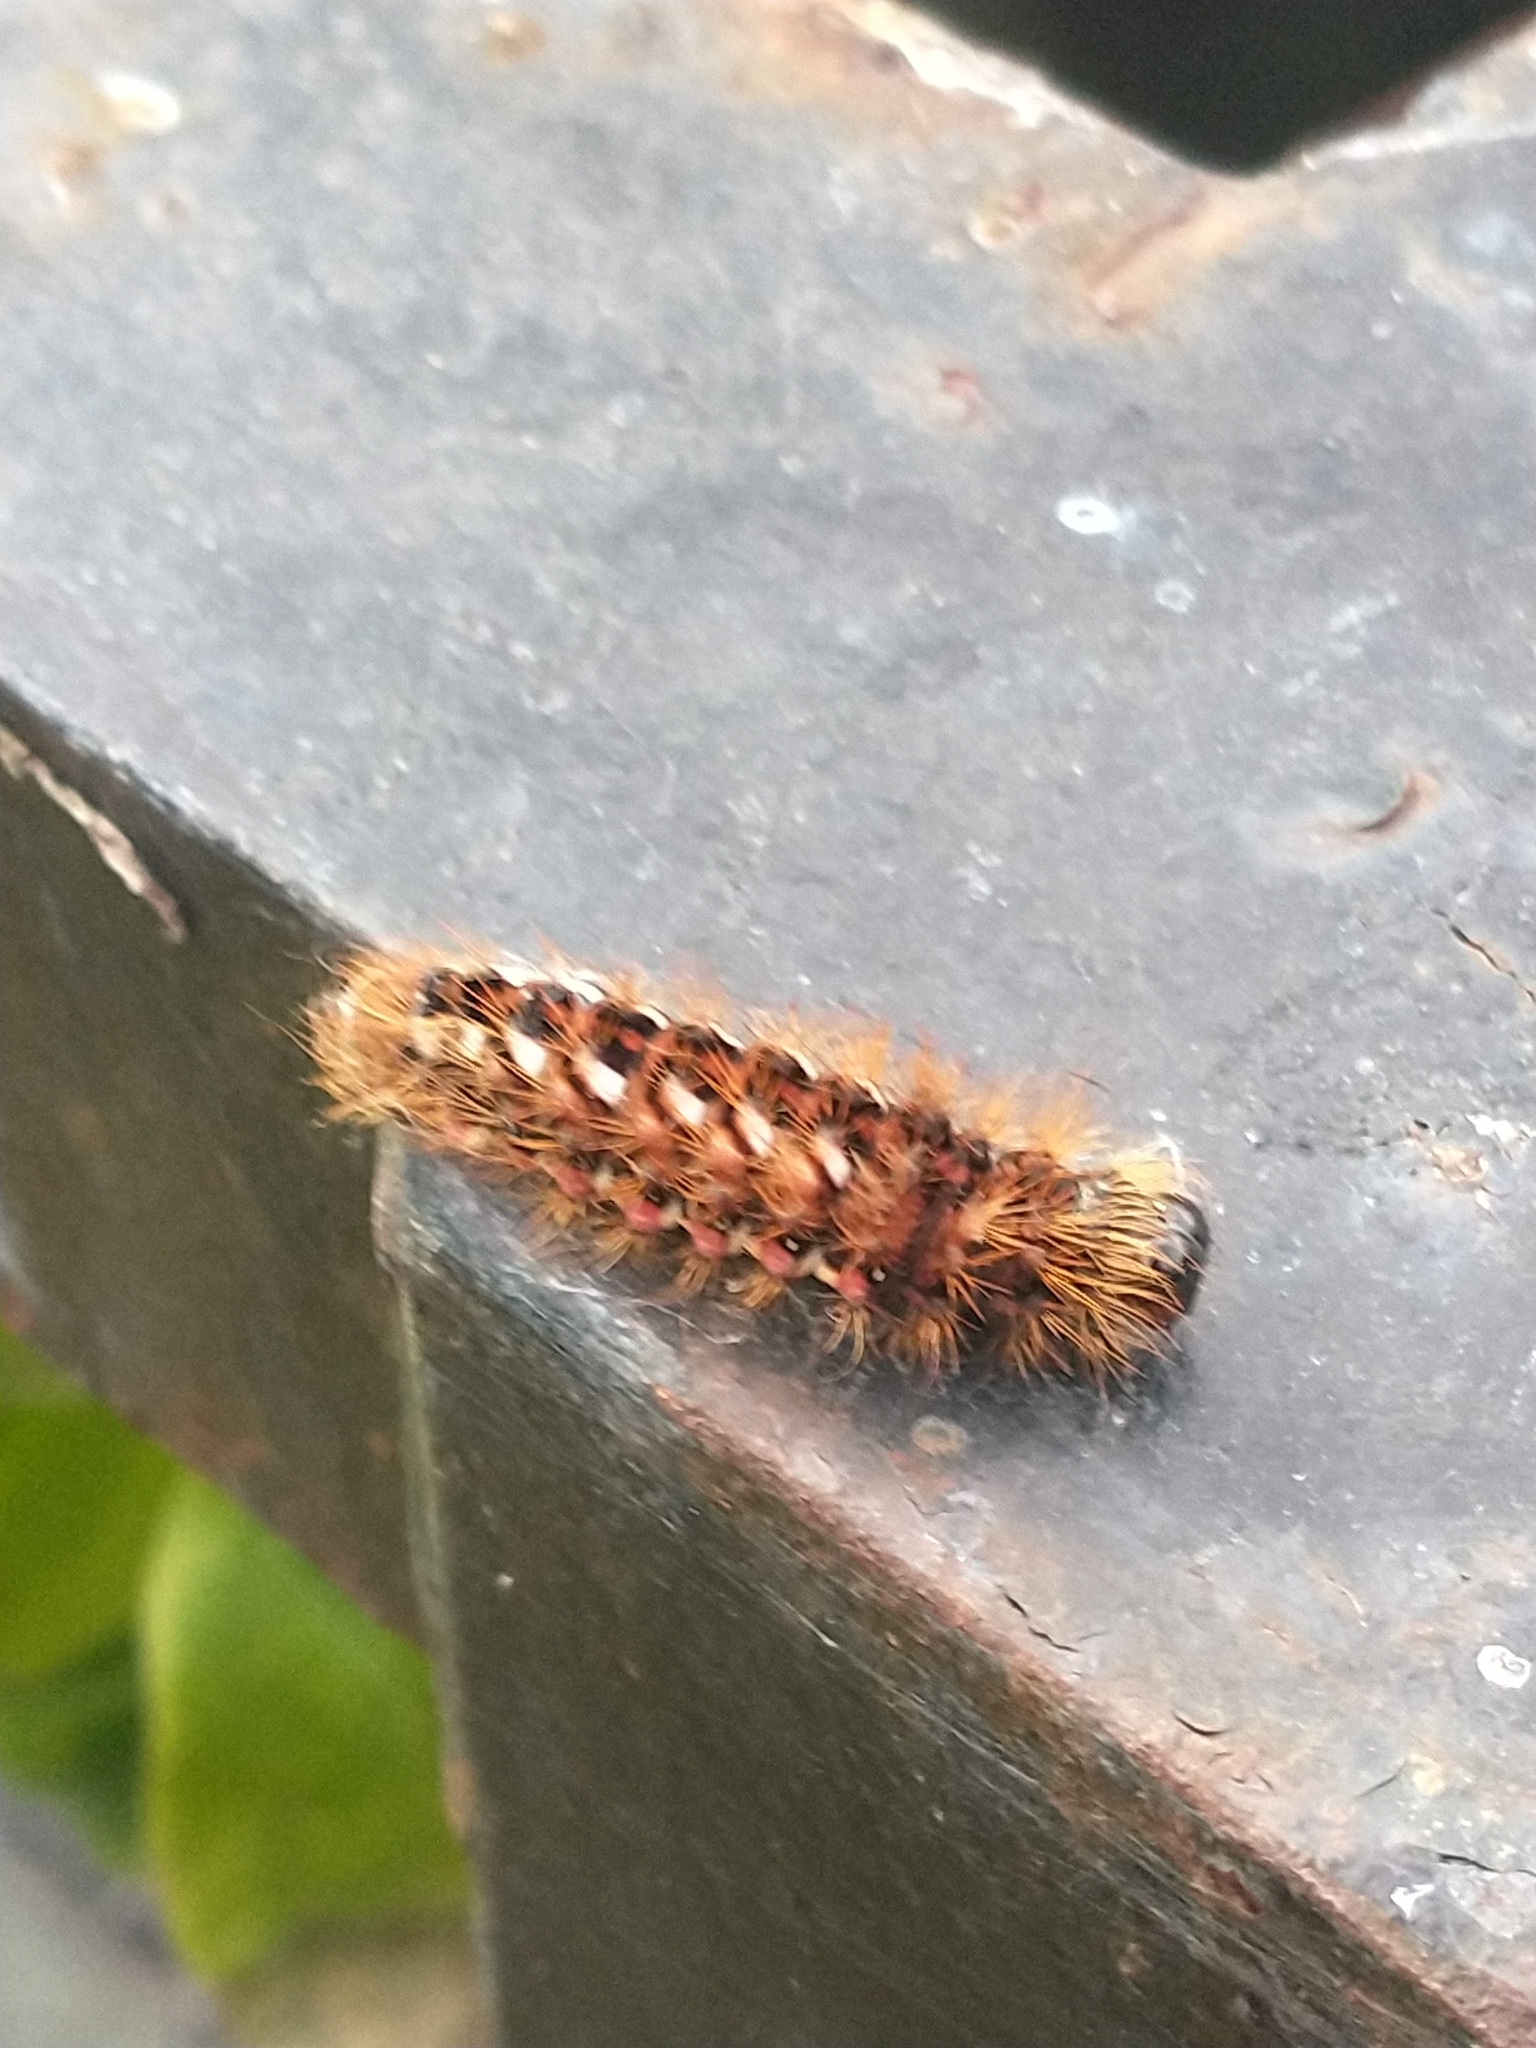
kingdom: Animalia
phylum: Arthropoda
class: Insecta
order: Lepidoptera
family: Noctuidae
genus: Acronicta
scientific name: Acronicta rumicis
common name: Knot grass
